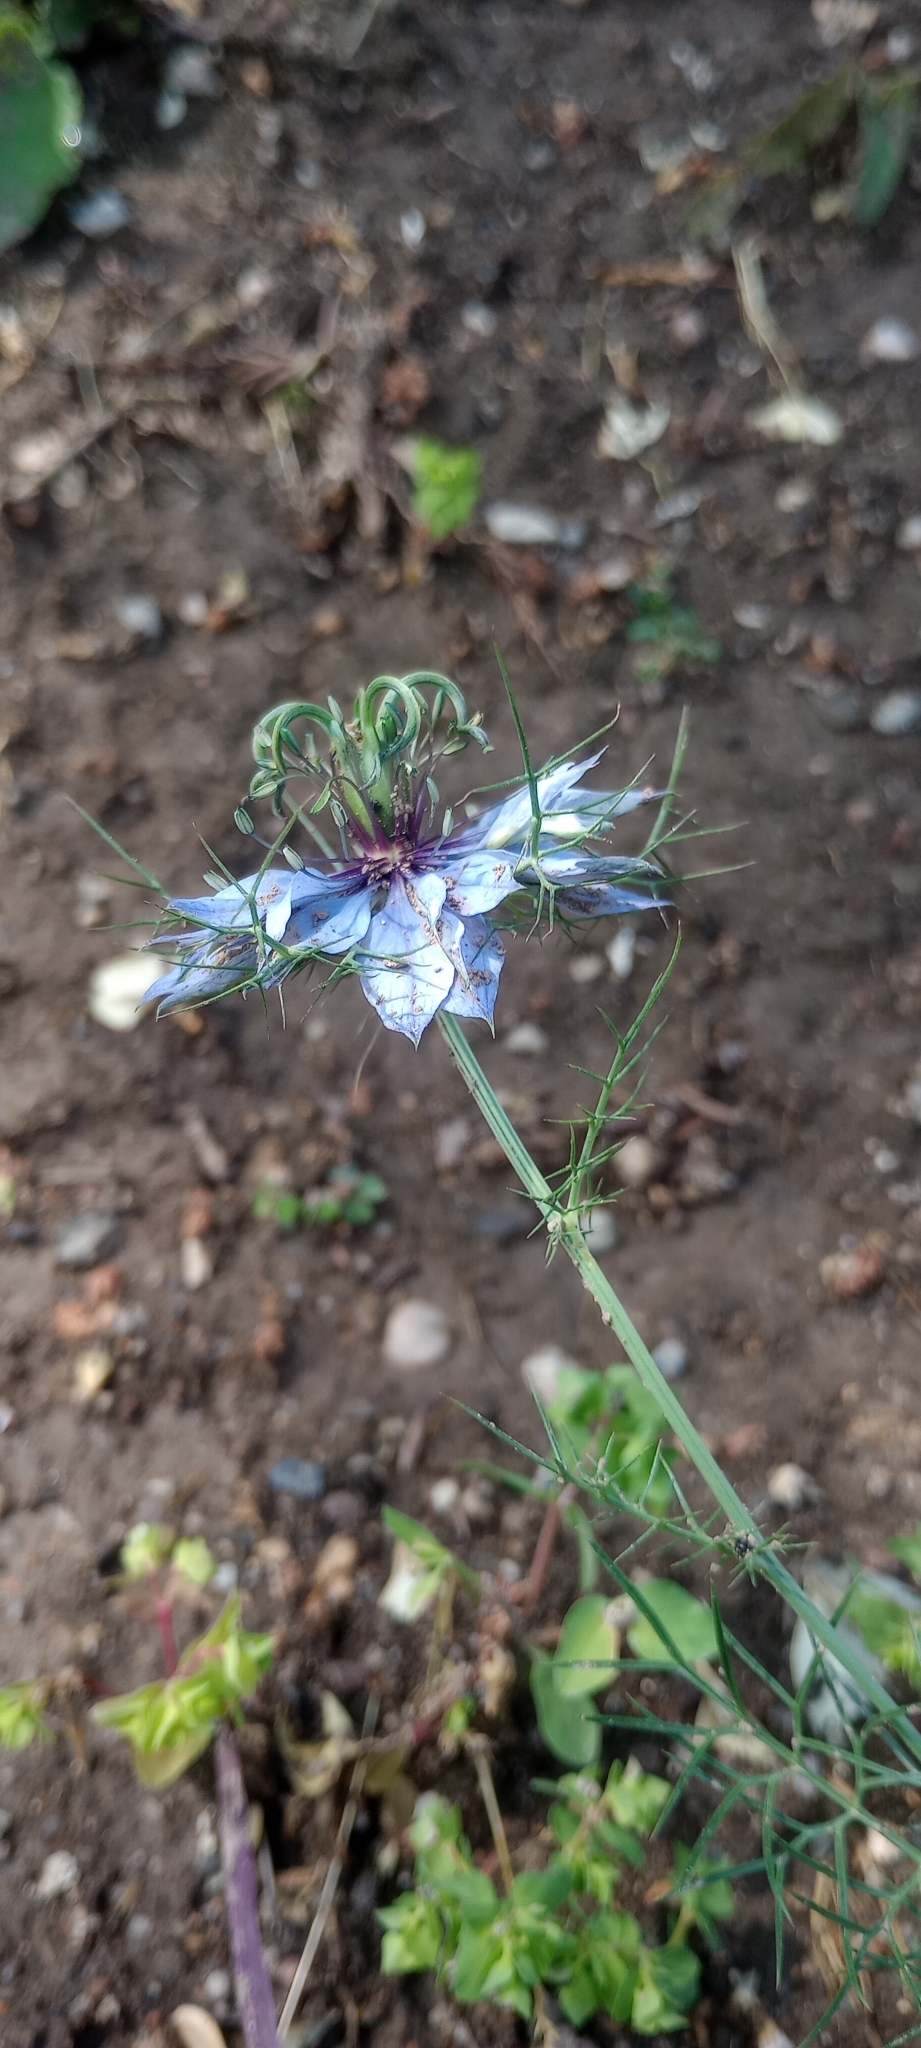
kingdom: Plantae
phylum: Tracheophyta
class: Magnoliopsida
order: Ranunculales
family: Ranunculaceae
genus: Nigella
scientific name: Nigella damascena
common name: Love-in-a-mist
